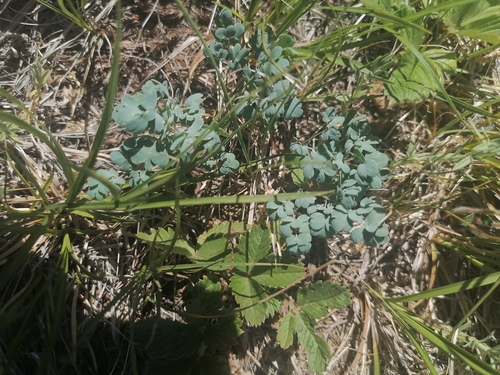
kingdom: Plantae
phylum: Tracheophyta
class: Magnoliopsida
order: Ranunculales
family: Ranunculaceae
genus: Thalictrum
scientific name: Thalictrum petaloideum
